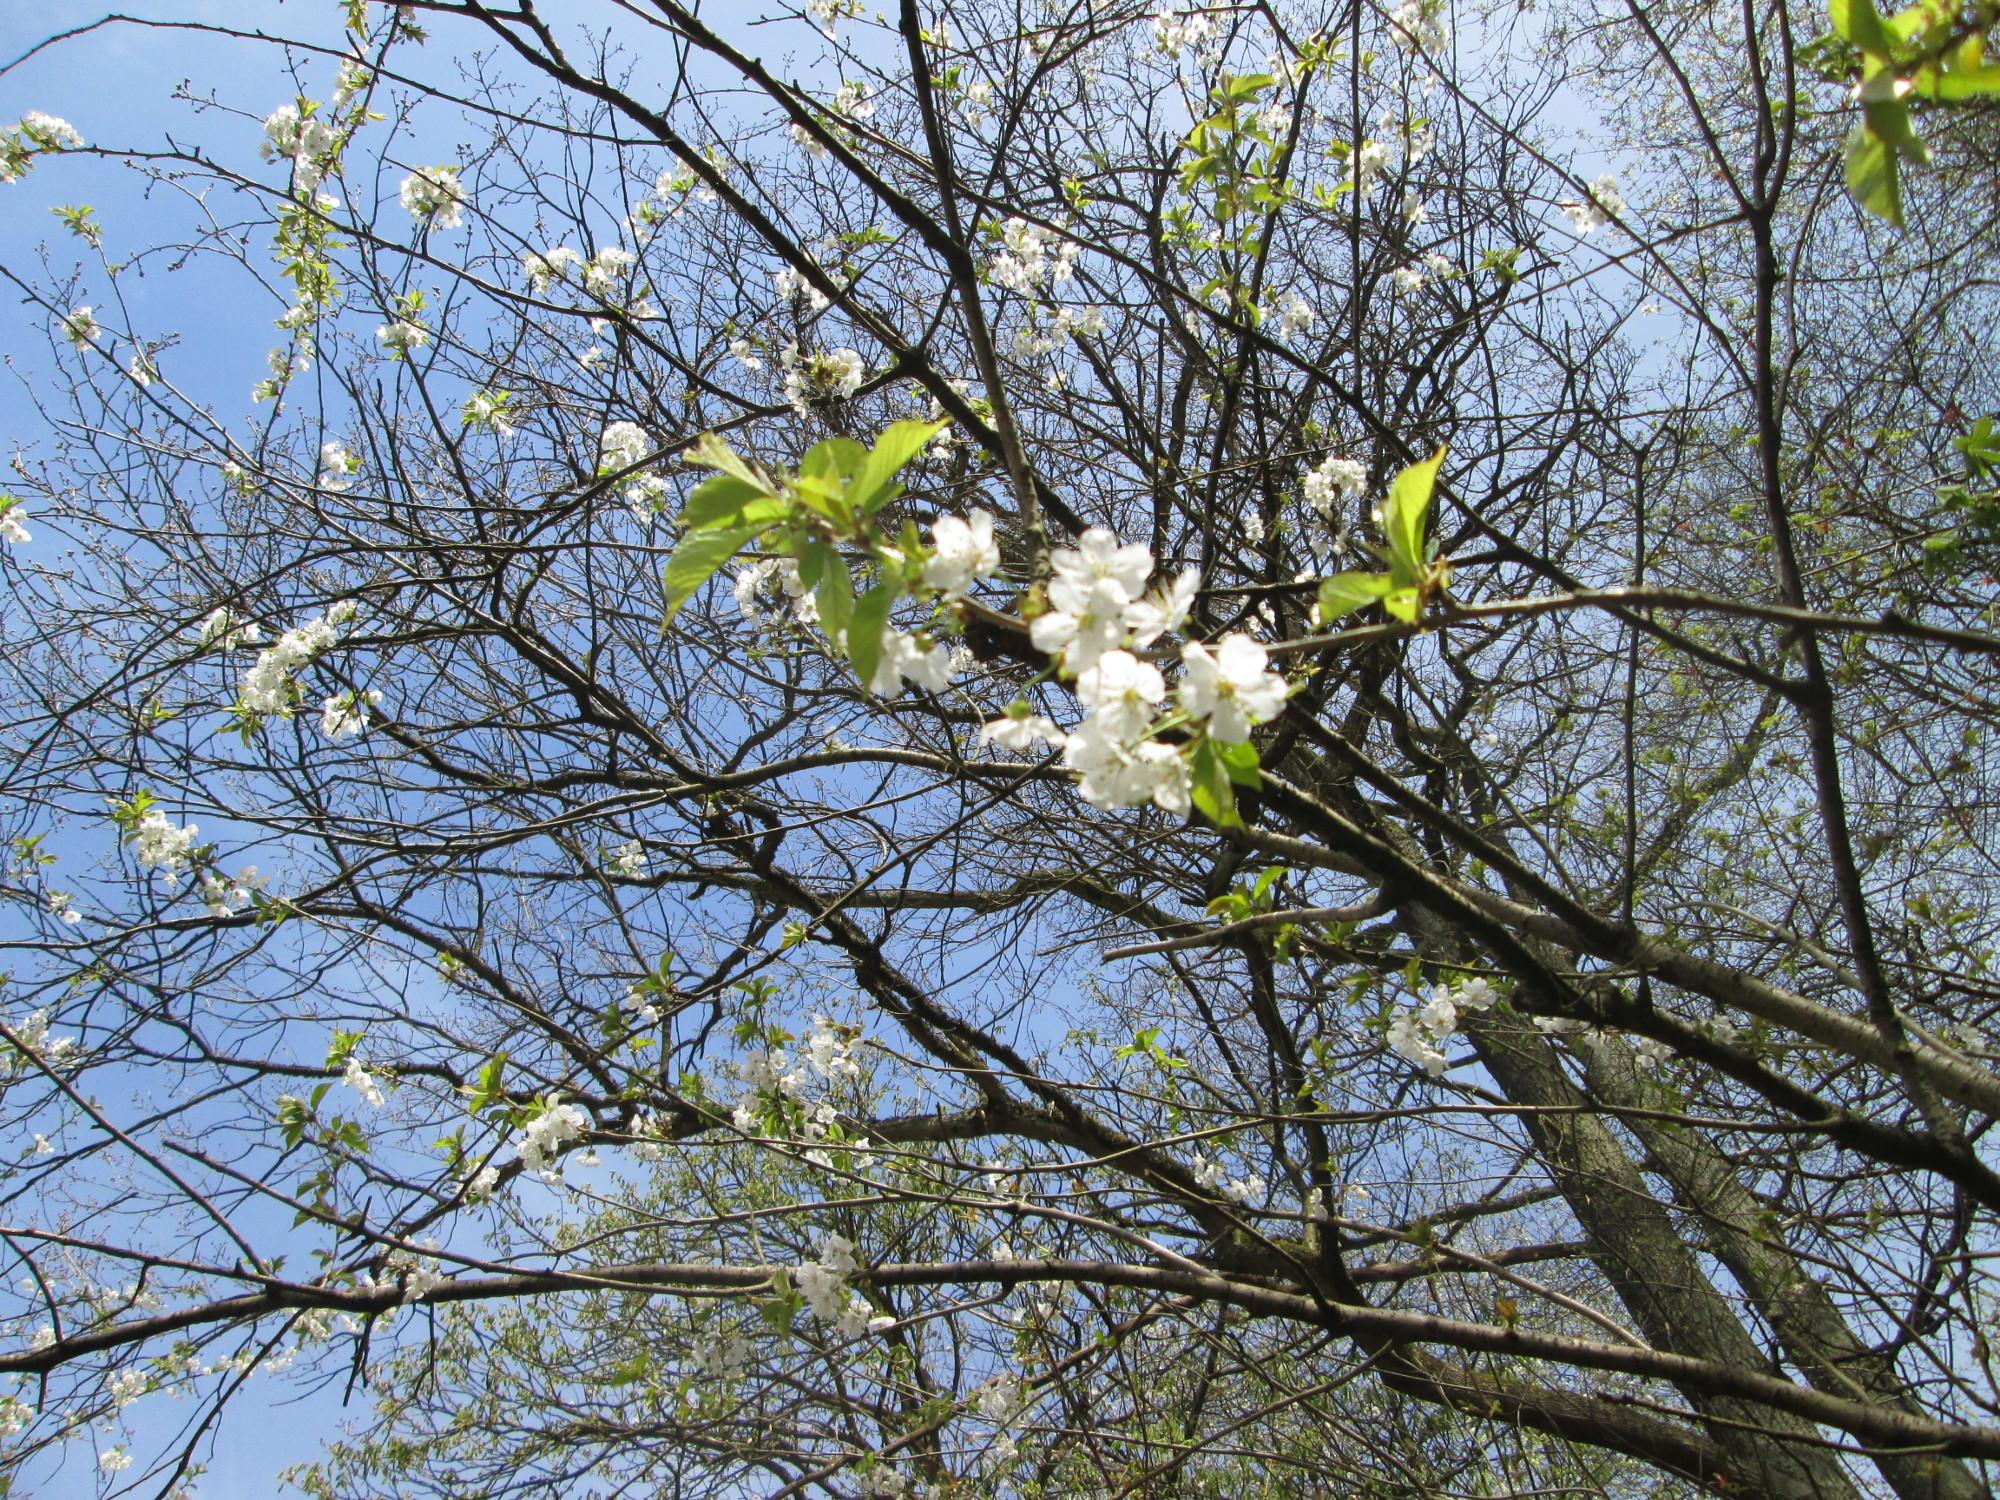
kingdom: Plantae
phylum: Tracheophyta
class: Magnoliopsida
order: Rosales
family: Rosaceae
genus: Prunus
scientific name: Prunus avium
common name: Sweet cherry
